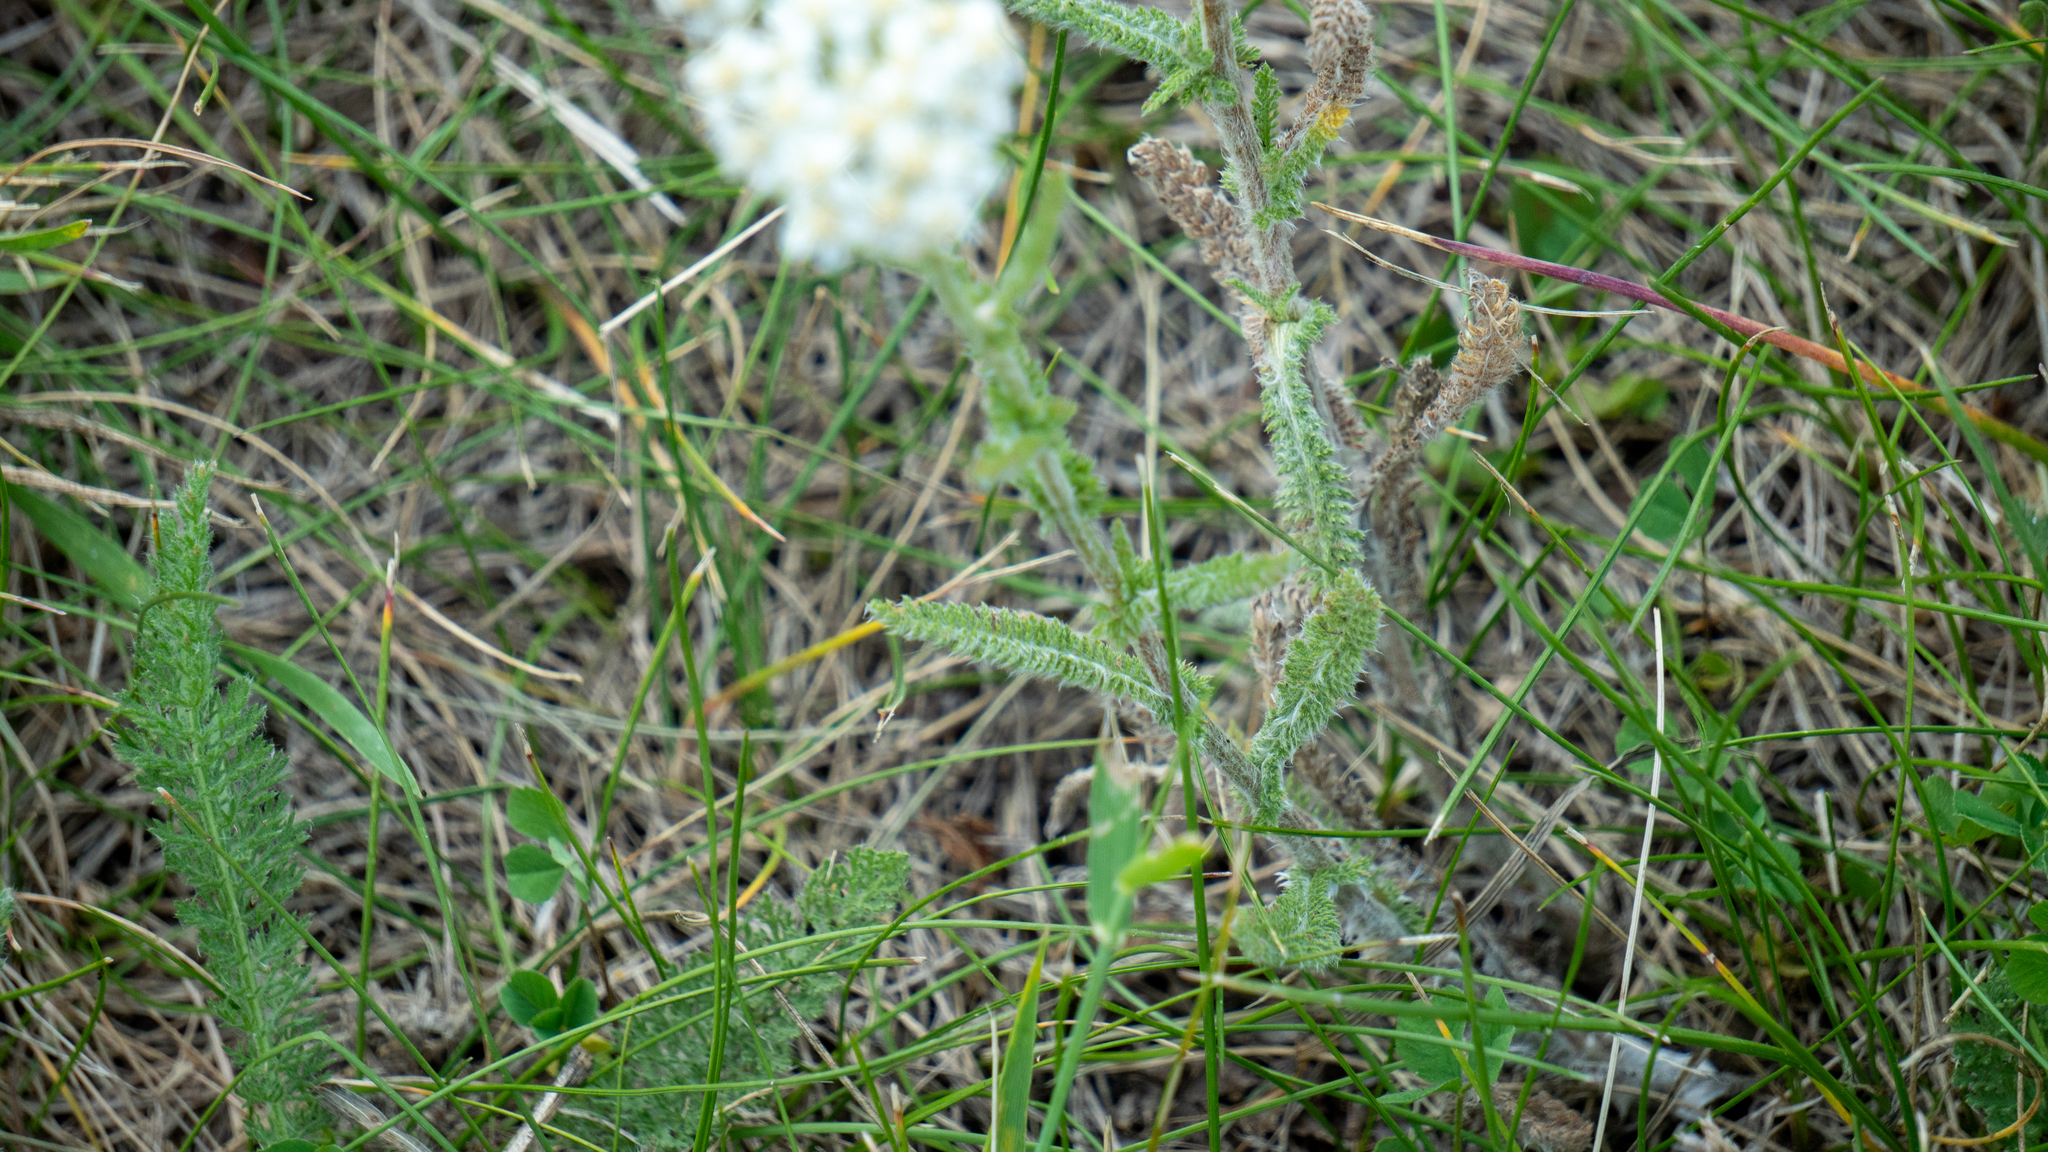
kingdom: Plantae
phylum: Tracheophyta
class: Magnoliopsida
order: Asterales
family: Asteraceae
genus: Achillea
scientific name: Achillea millefolium
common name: Yarrow
